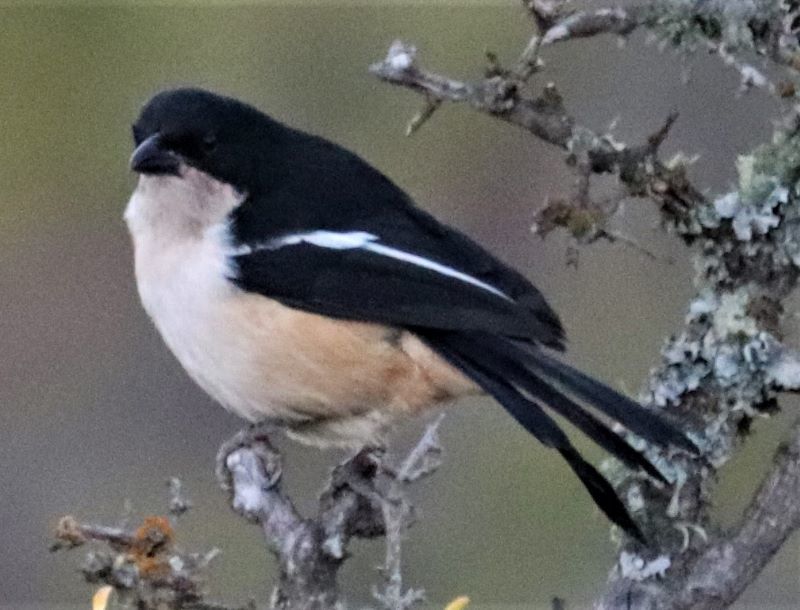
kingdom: Animalia
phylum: Chordata
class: Aves
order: Passeriformes
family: Malaconotidae
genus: Laniarius
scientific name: Laniarius ferrugineus
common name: Southern boubou
